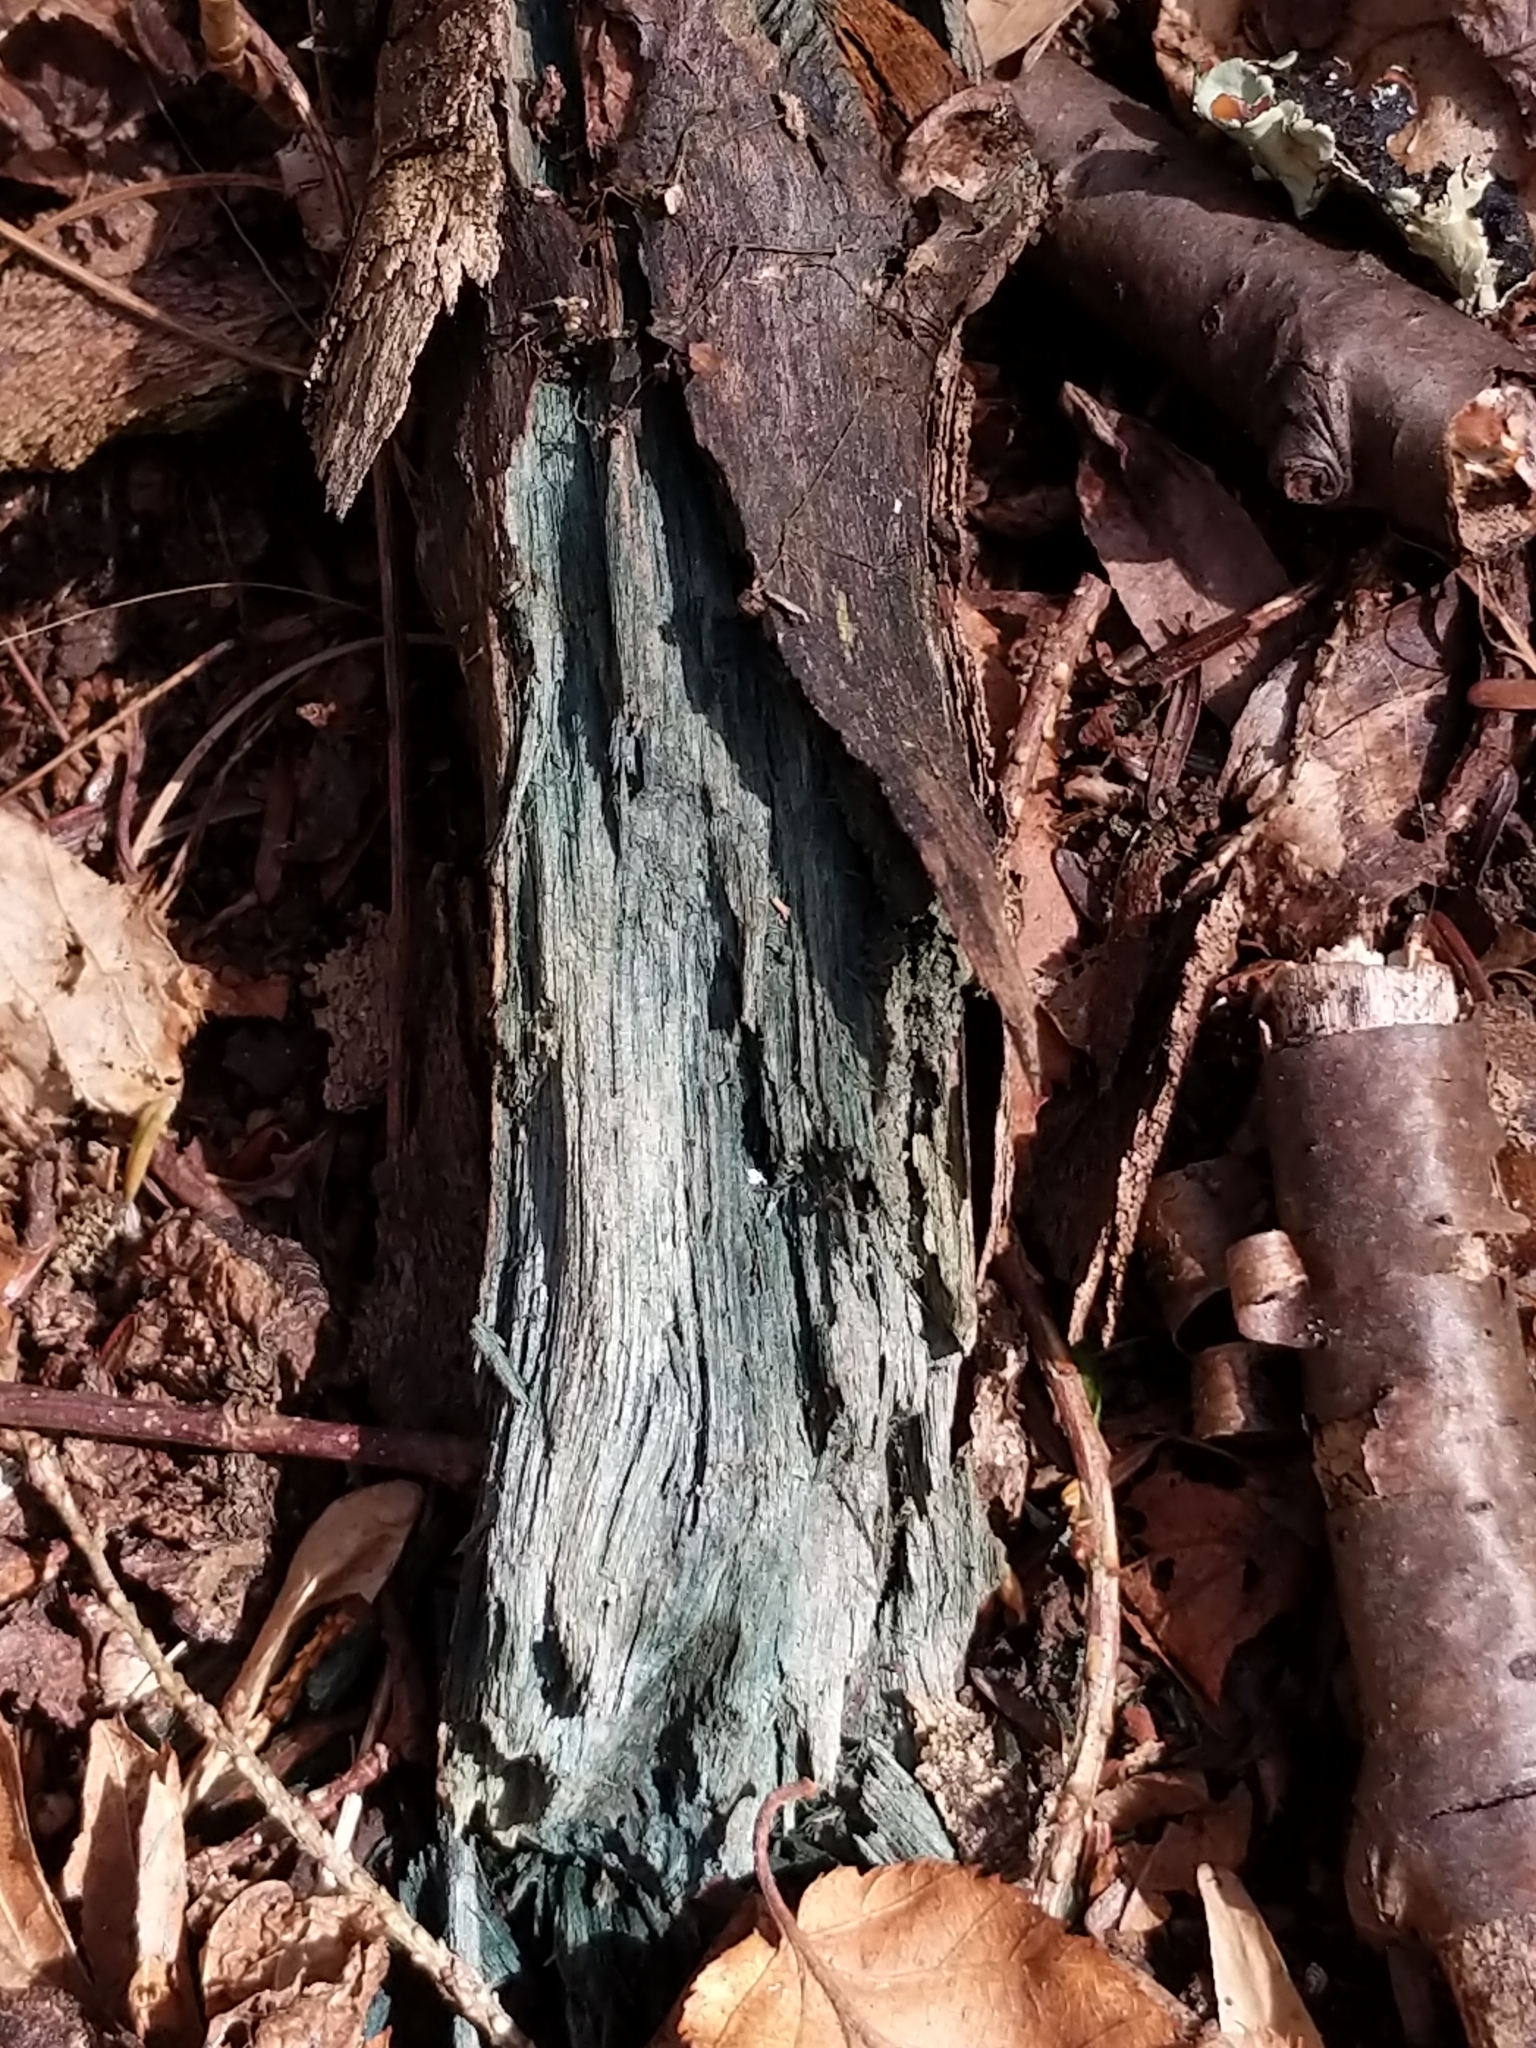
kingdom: Fungi
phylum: Ascomycota
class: Leotiomycetes
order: Helotiales
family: Chlorociboriaceae
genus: Chlorociboria
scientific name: Chlorociboria
